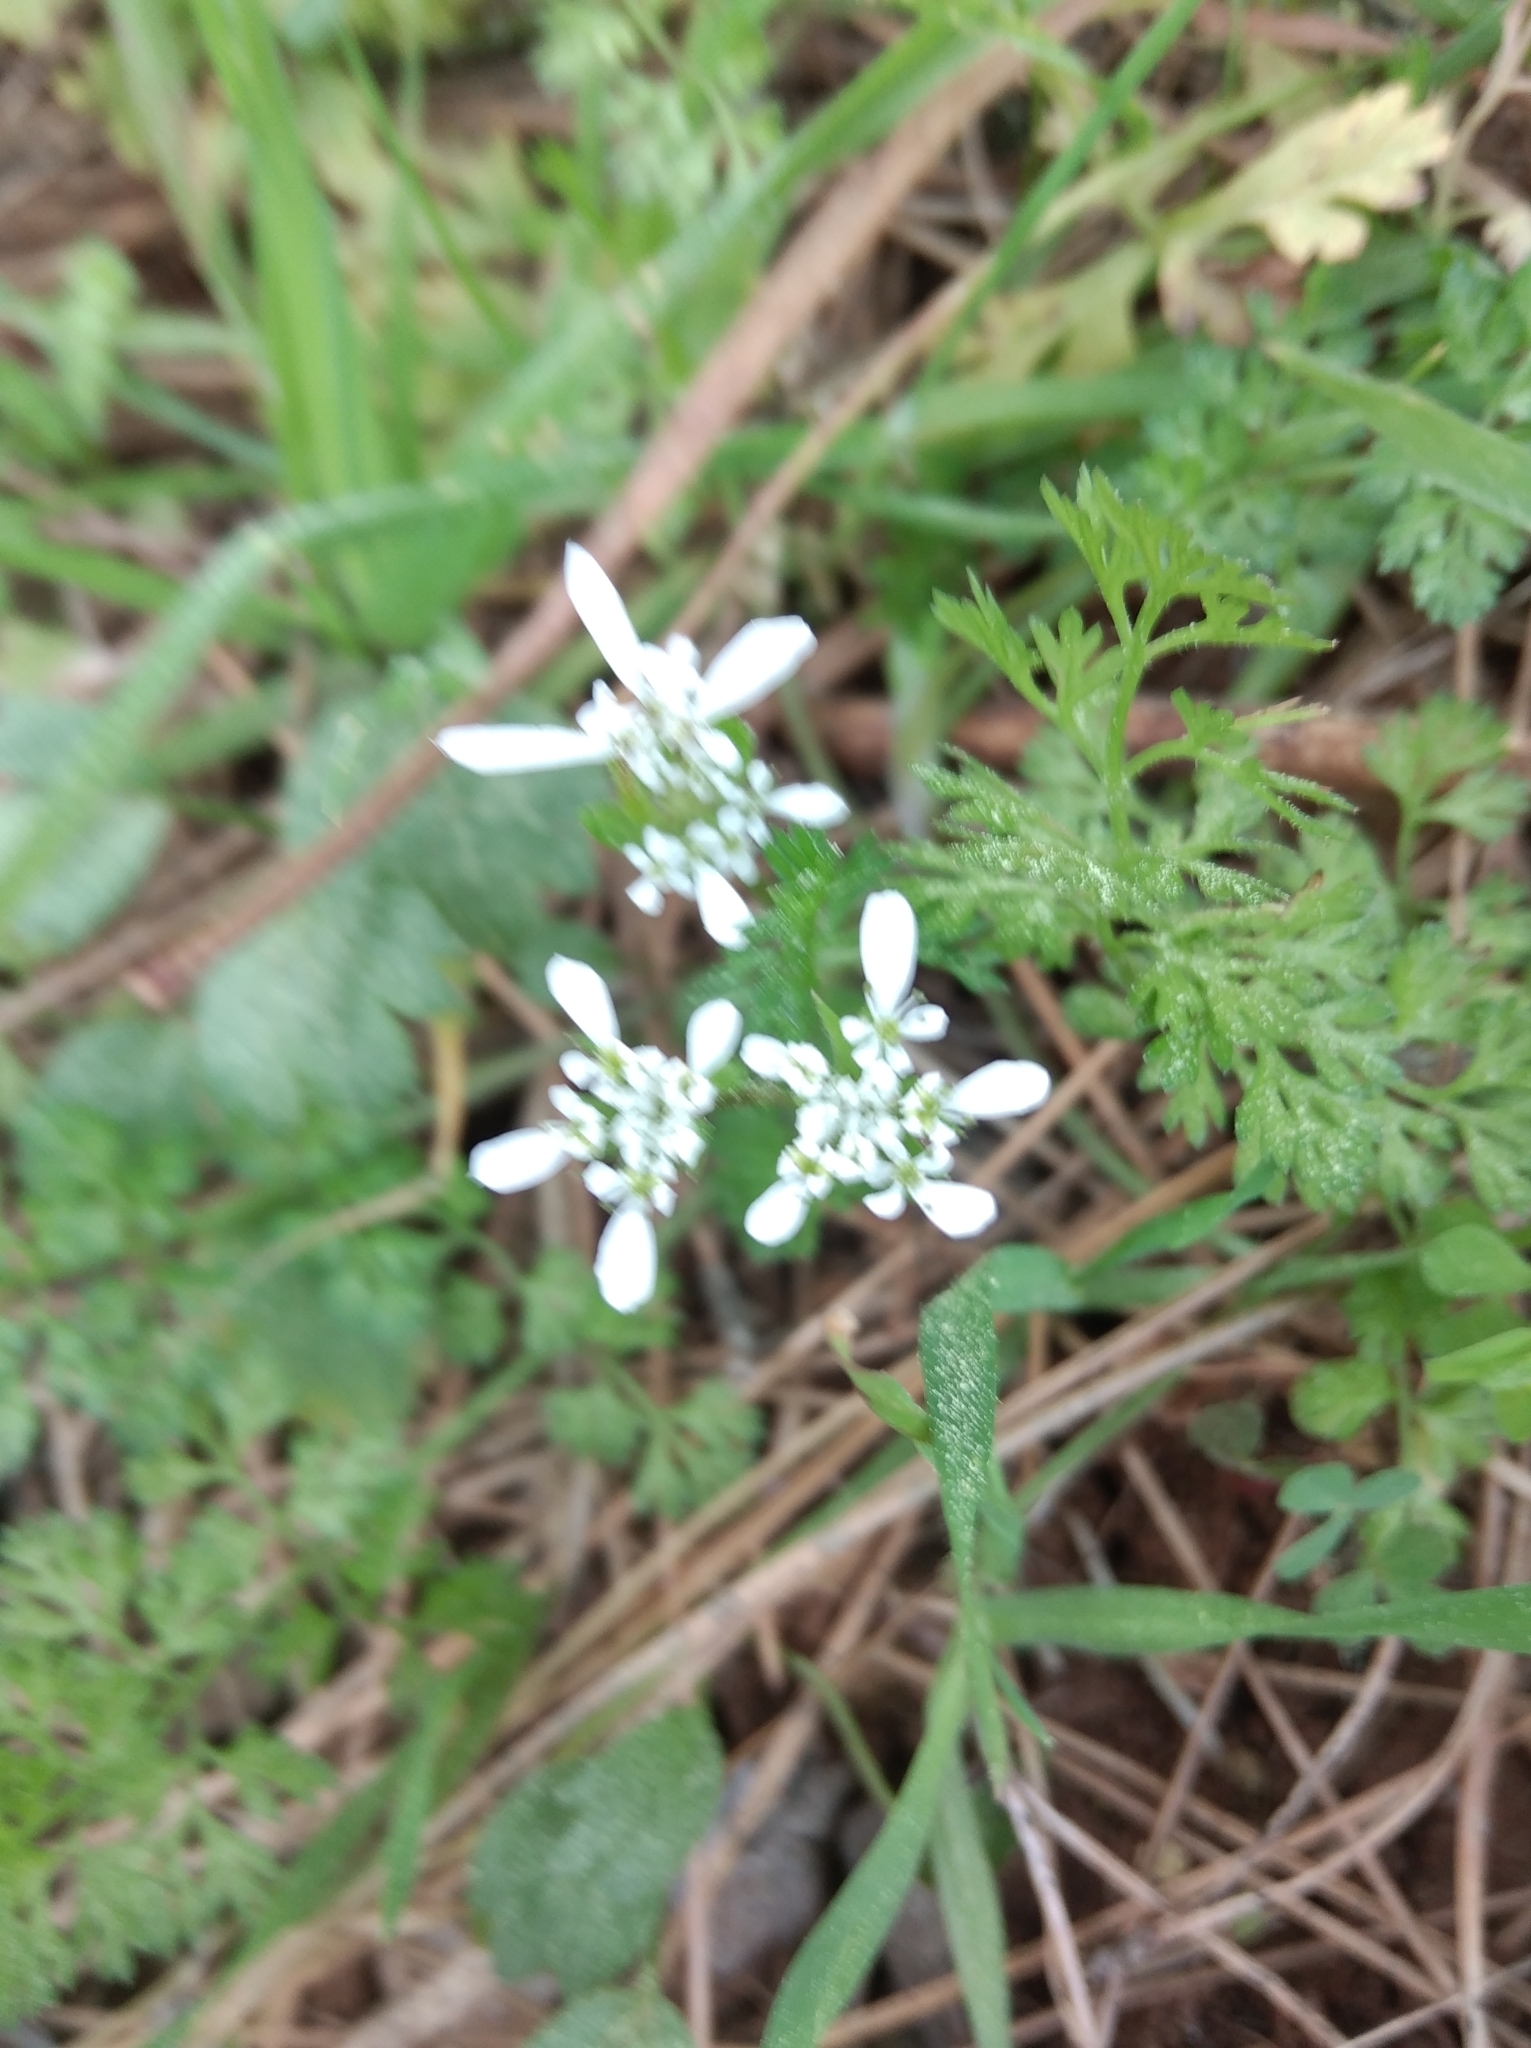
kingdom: Plantae
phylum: Tracheophyta
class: Magnoliopsida
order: Apiales
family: Apiaceae
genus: Scandix
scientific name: Scandix pecten-veneris
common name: Shepherd's-needle
